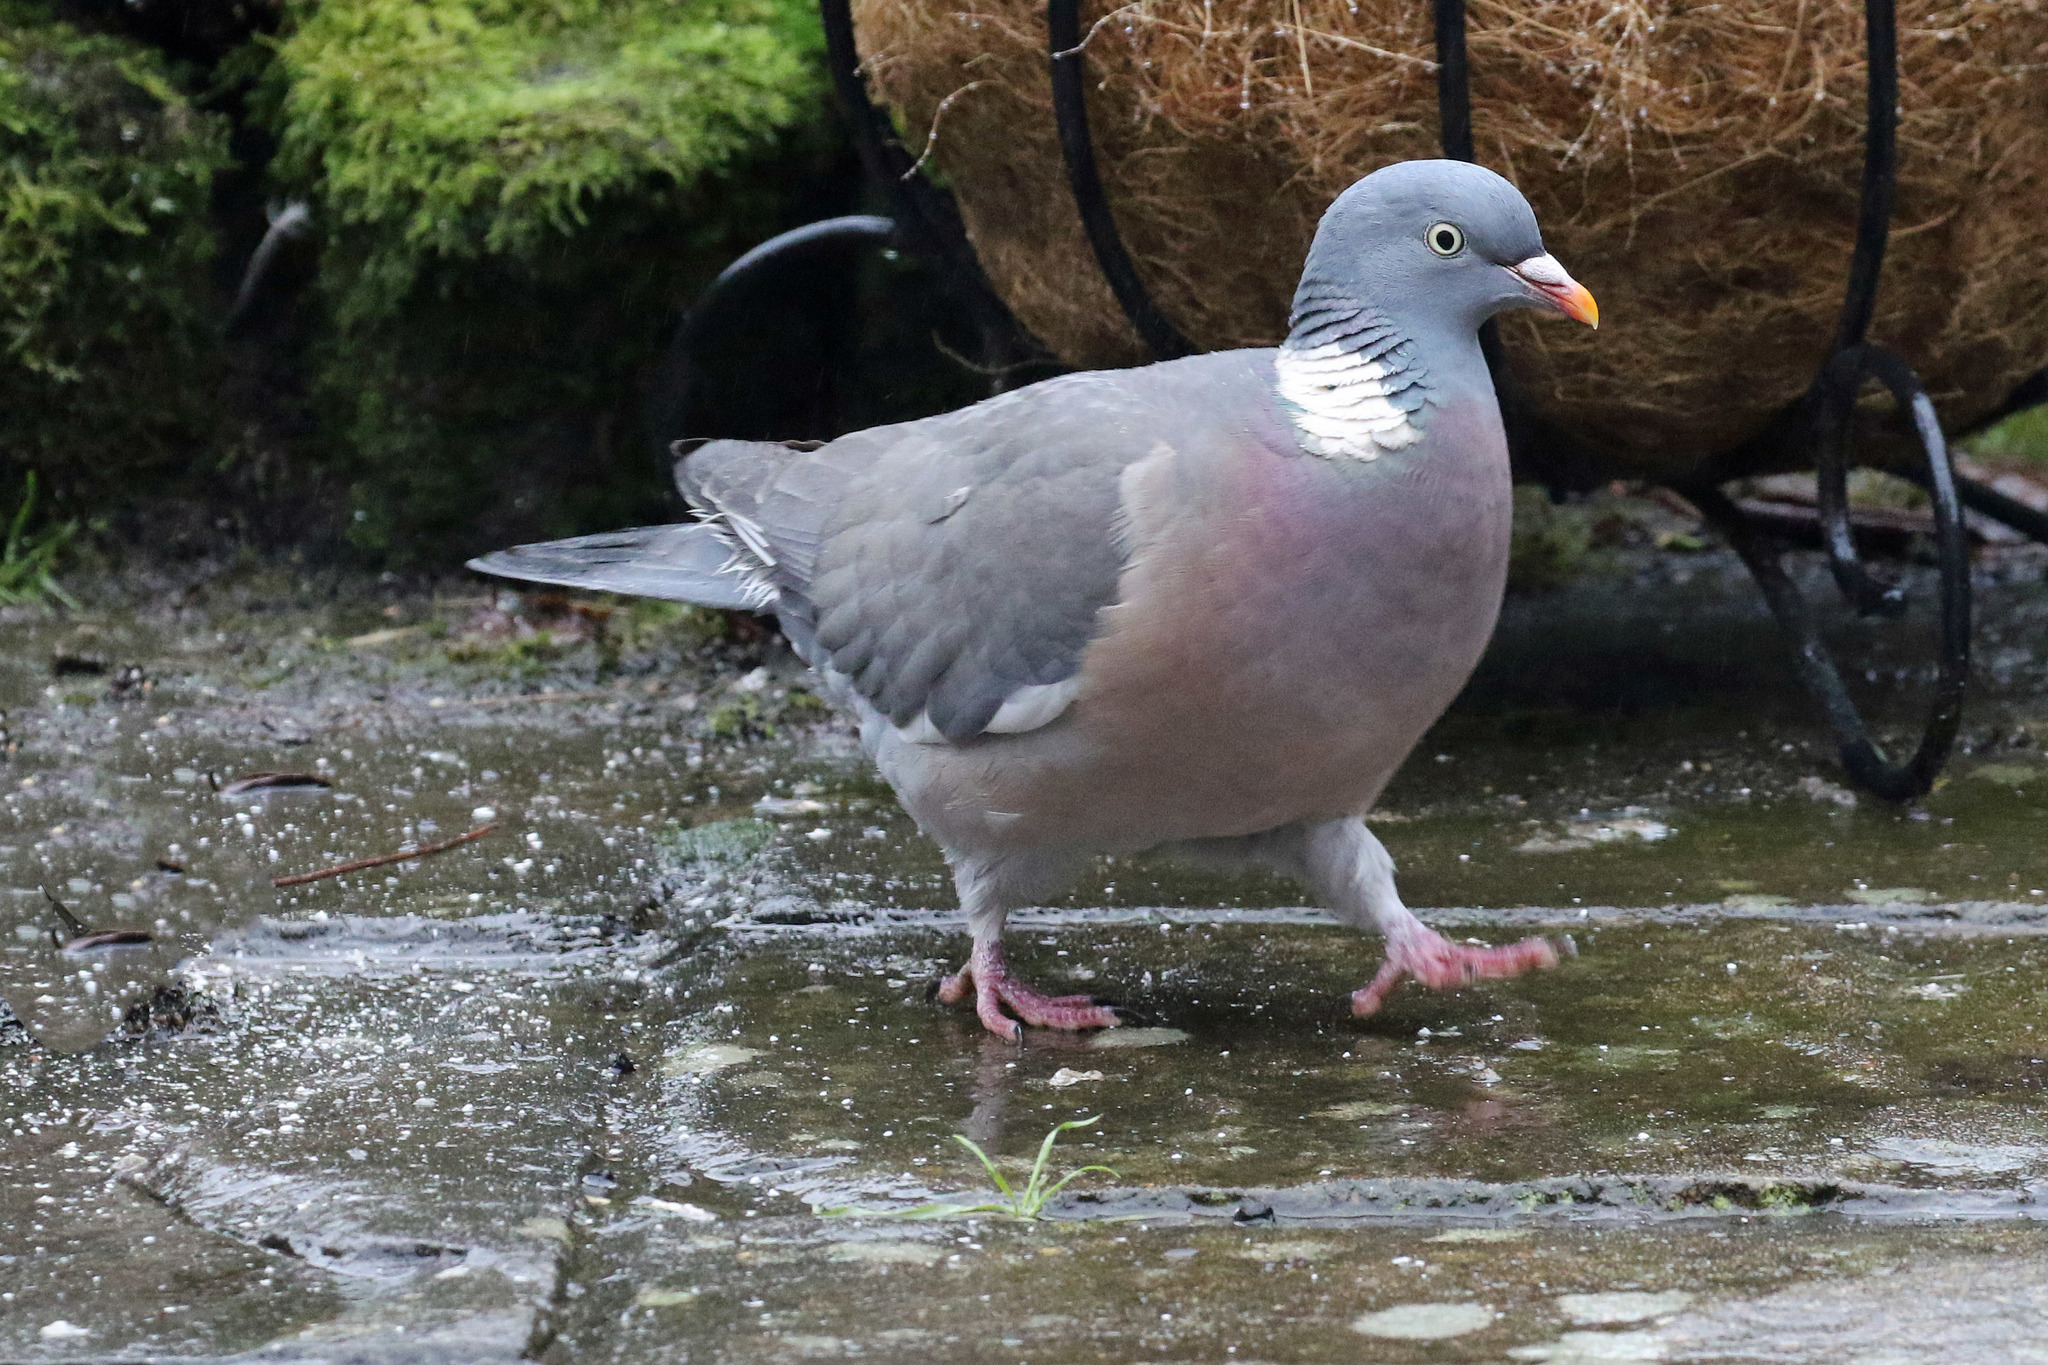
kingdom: Animalia
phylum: Chordata
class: Aves
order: Columbiformes
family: Columbidae
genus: Columba
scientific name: Columba palumbus
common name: Common wood pigeon
